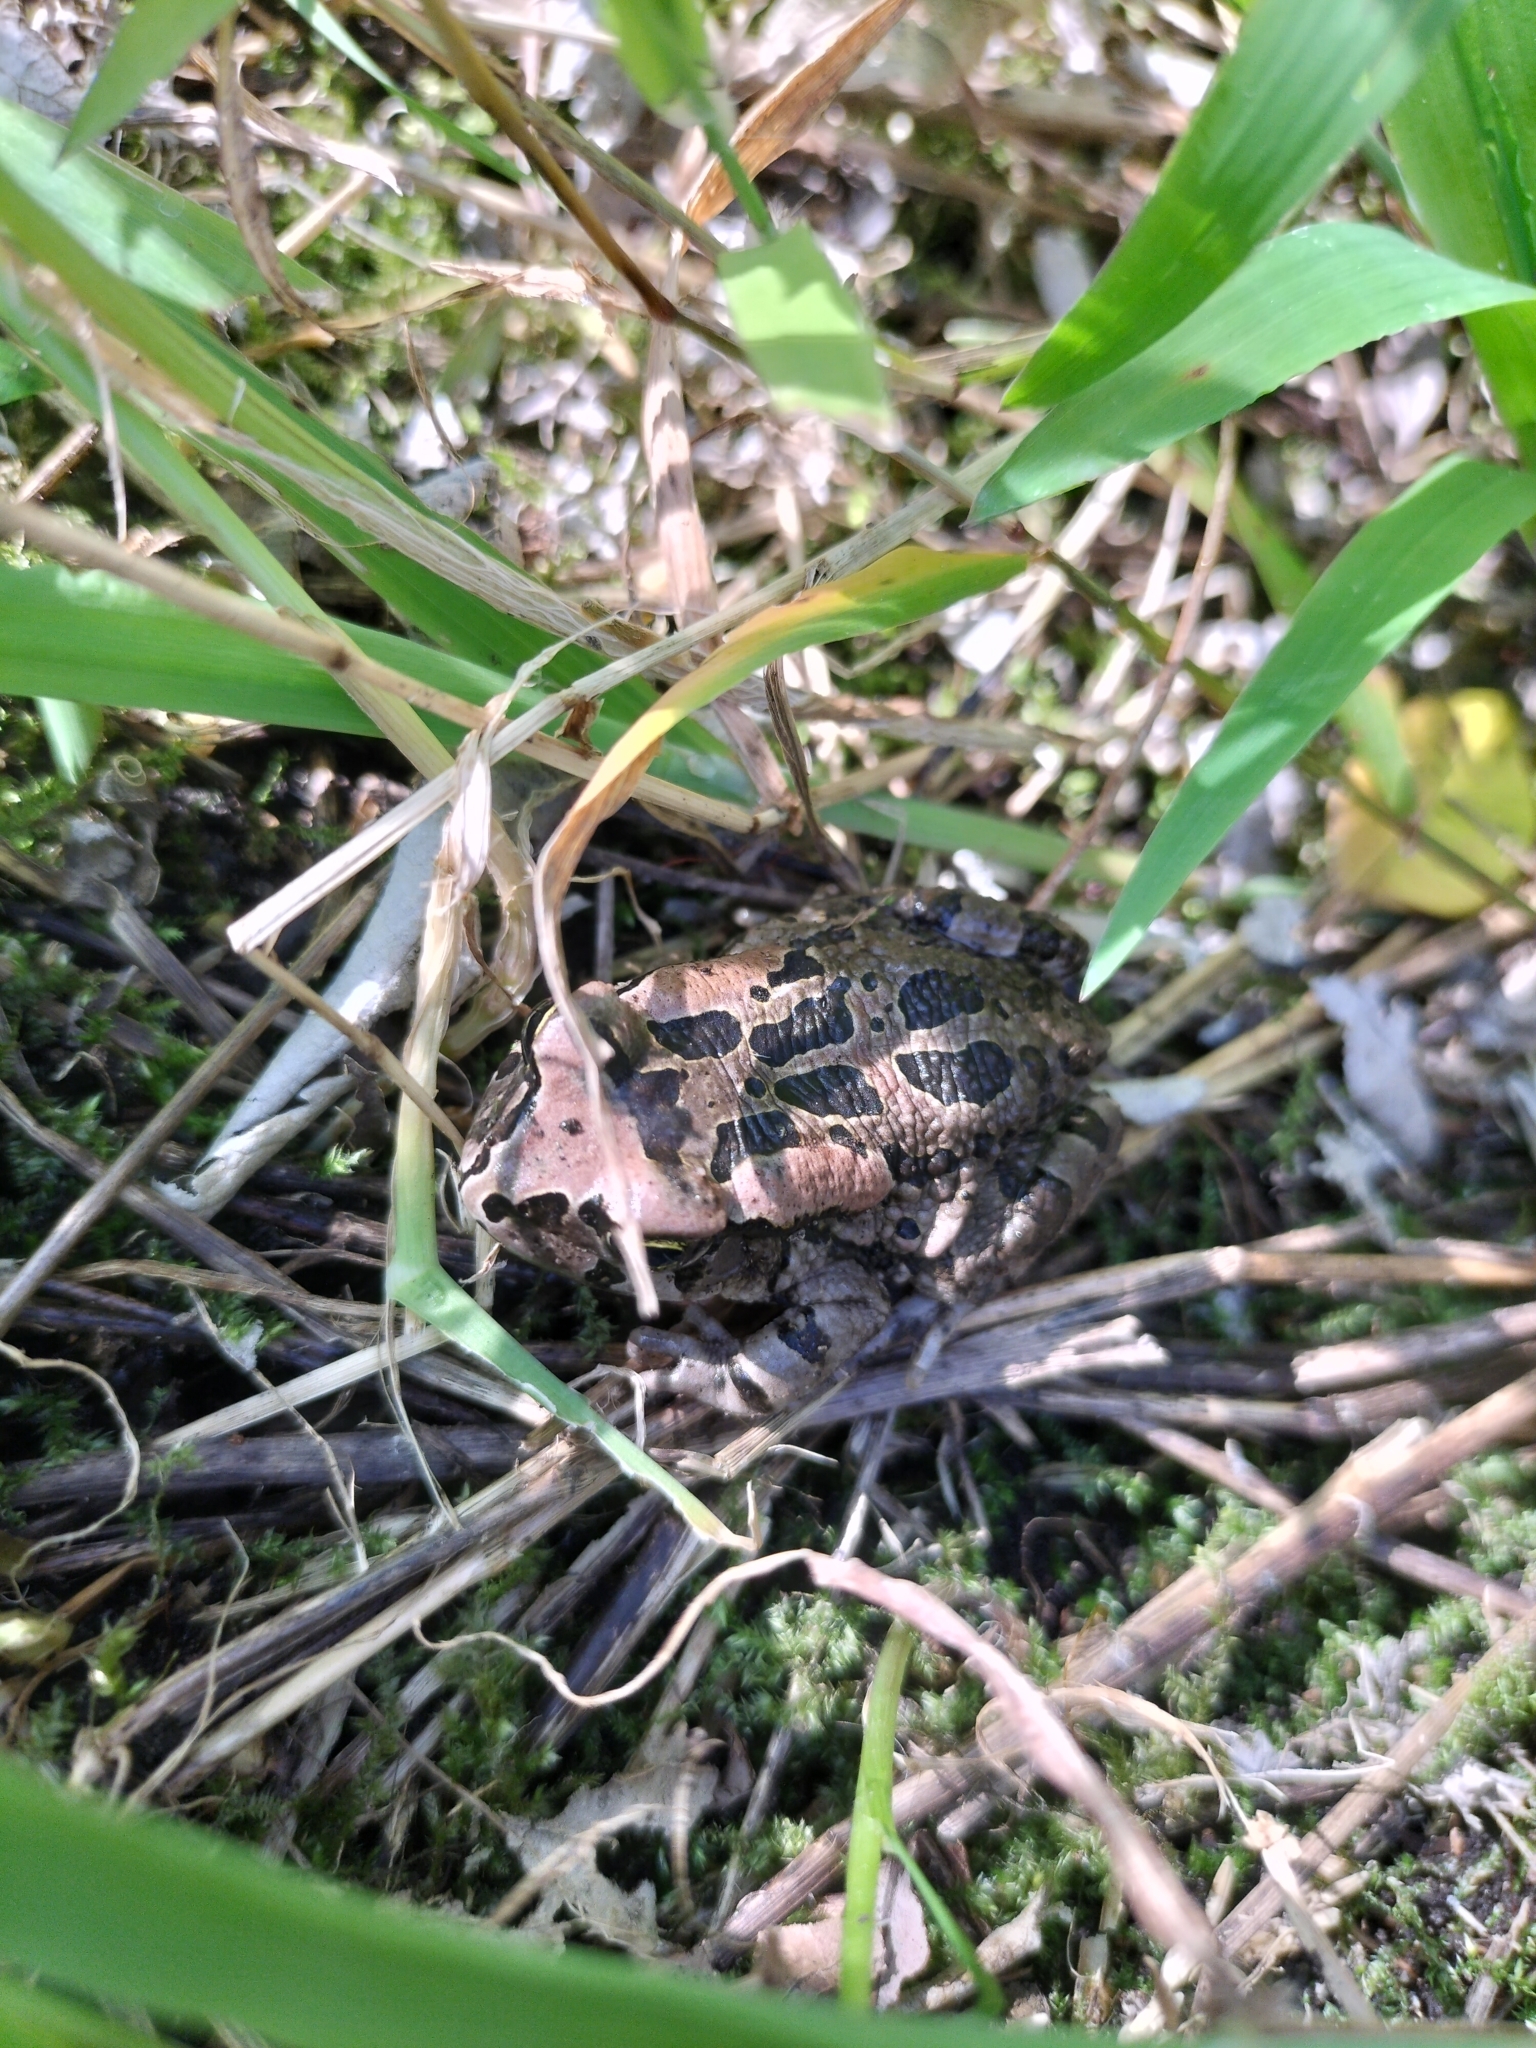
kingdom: Animalia
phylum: Chordata
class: Amphibia
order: Anura
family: Bufonidae
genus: Sclerophrys
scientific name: Sclerophrys capensis
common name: Ranger’s toad
